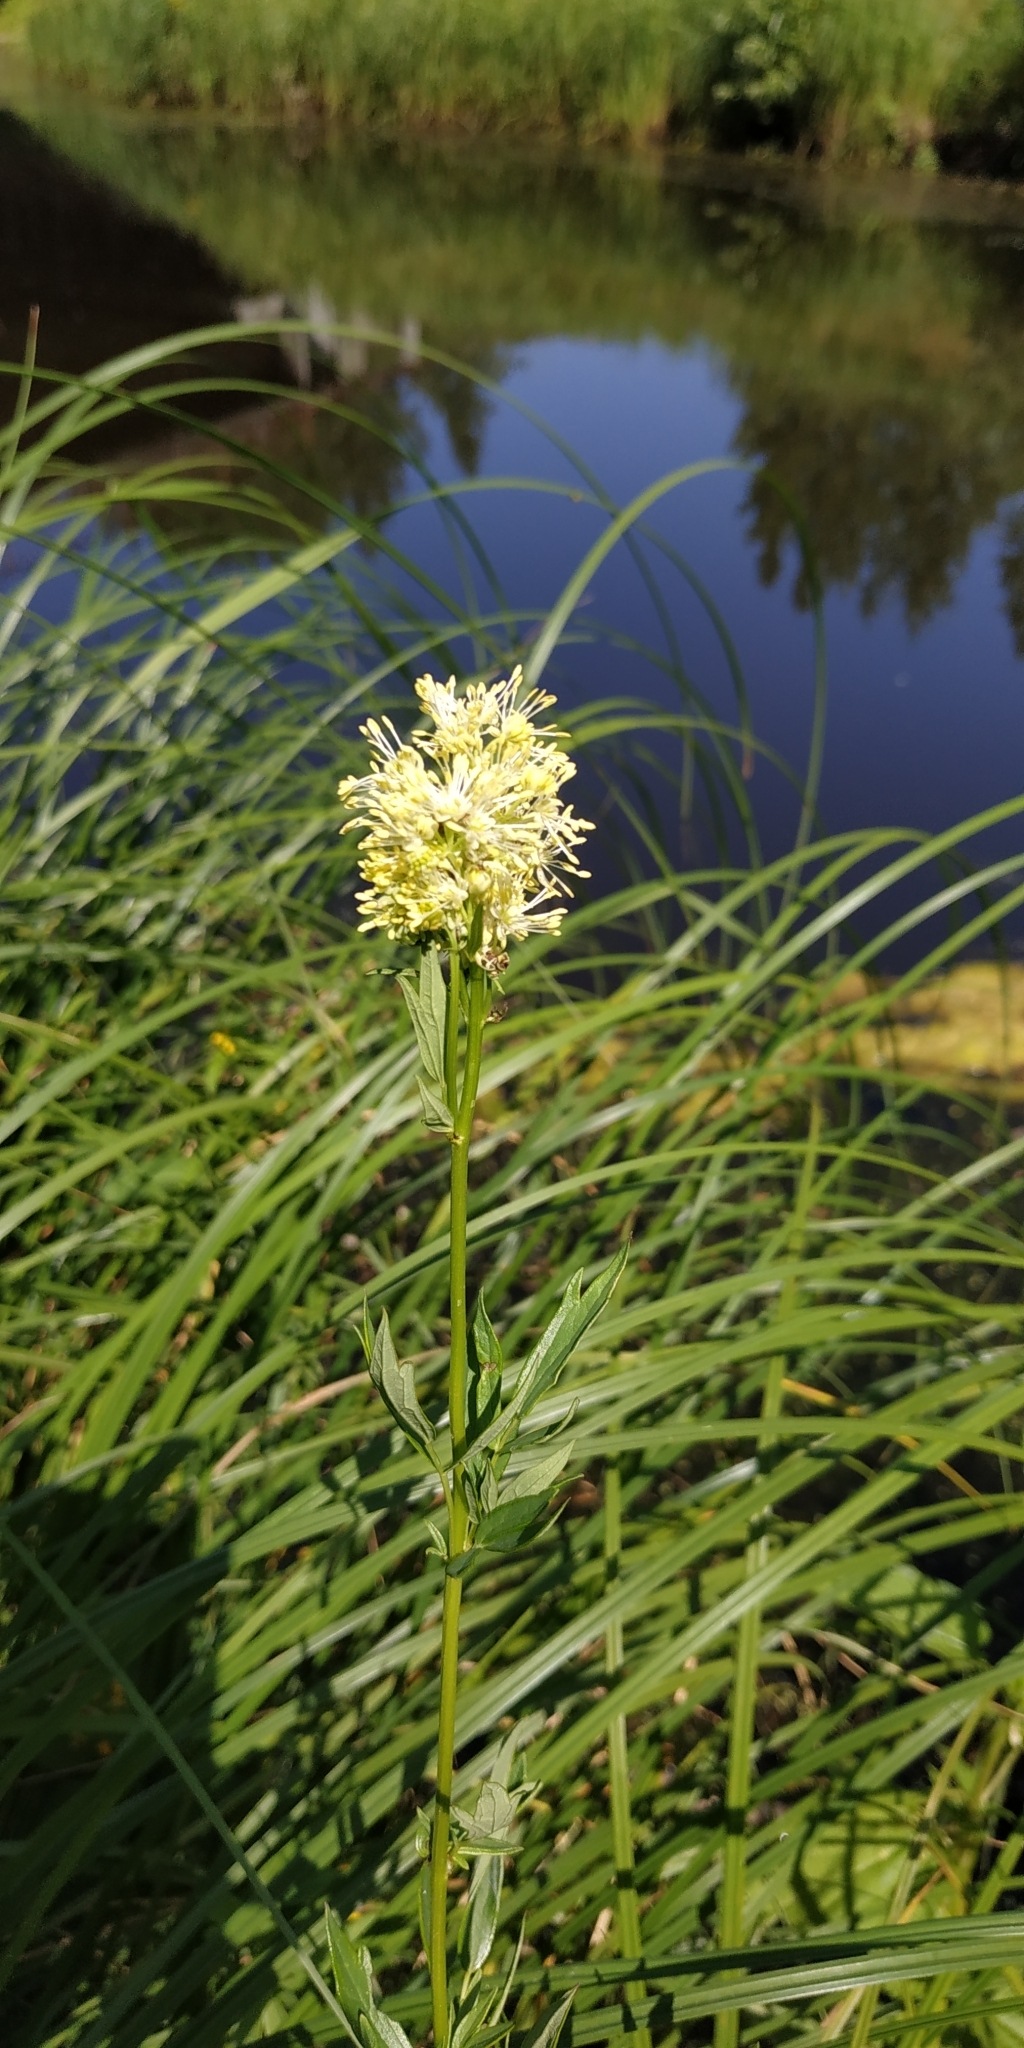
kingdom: Plantae
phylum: Tracheophyta
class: Magnoliopsida
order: Ranunculales
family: Ranunculaceae
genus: Thalictrum
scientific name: Thalictrum flavum
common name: Common meadow-rue
